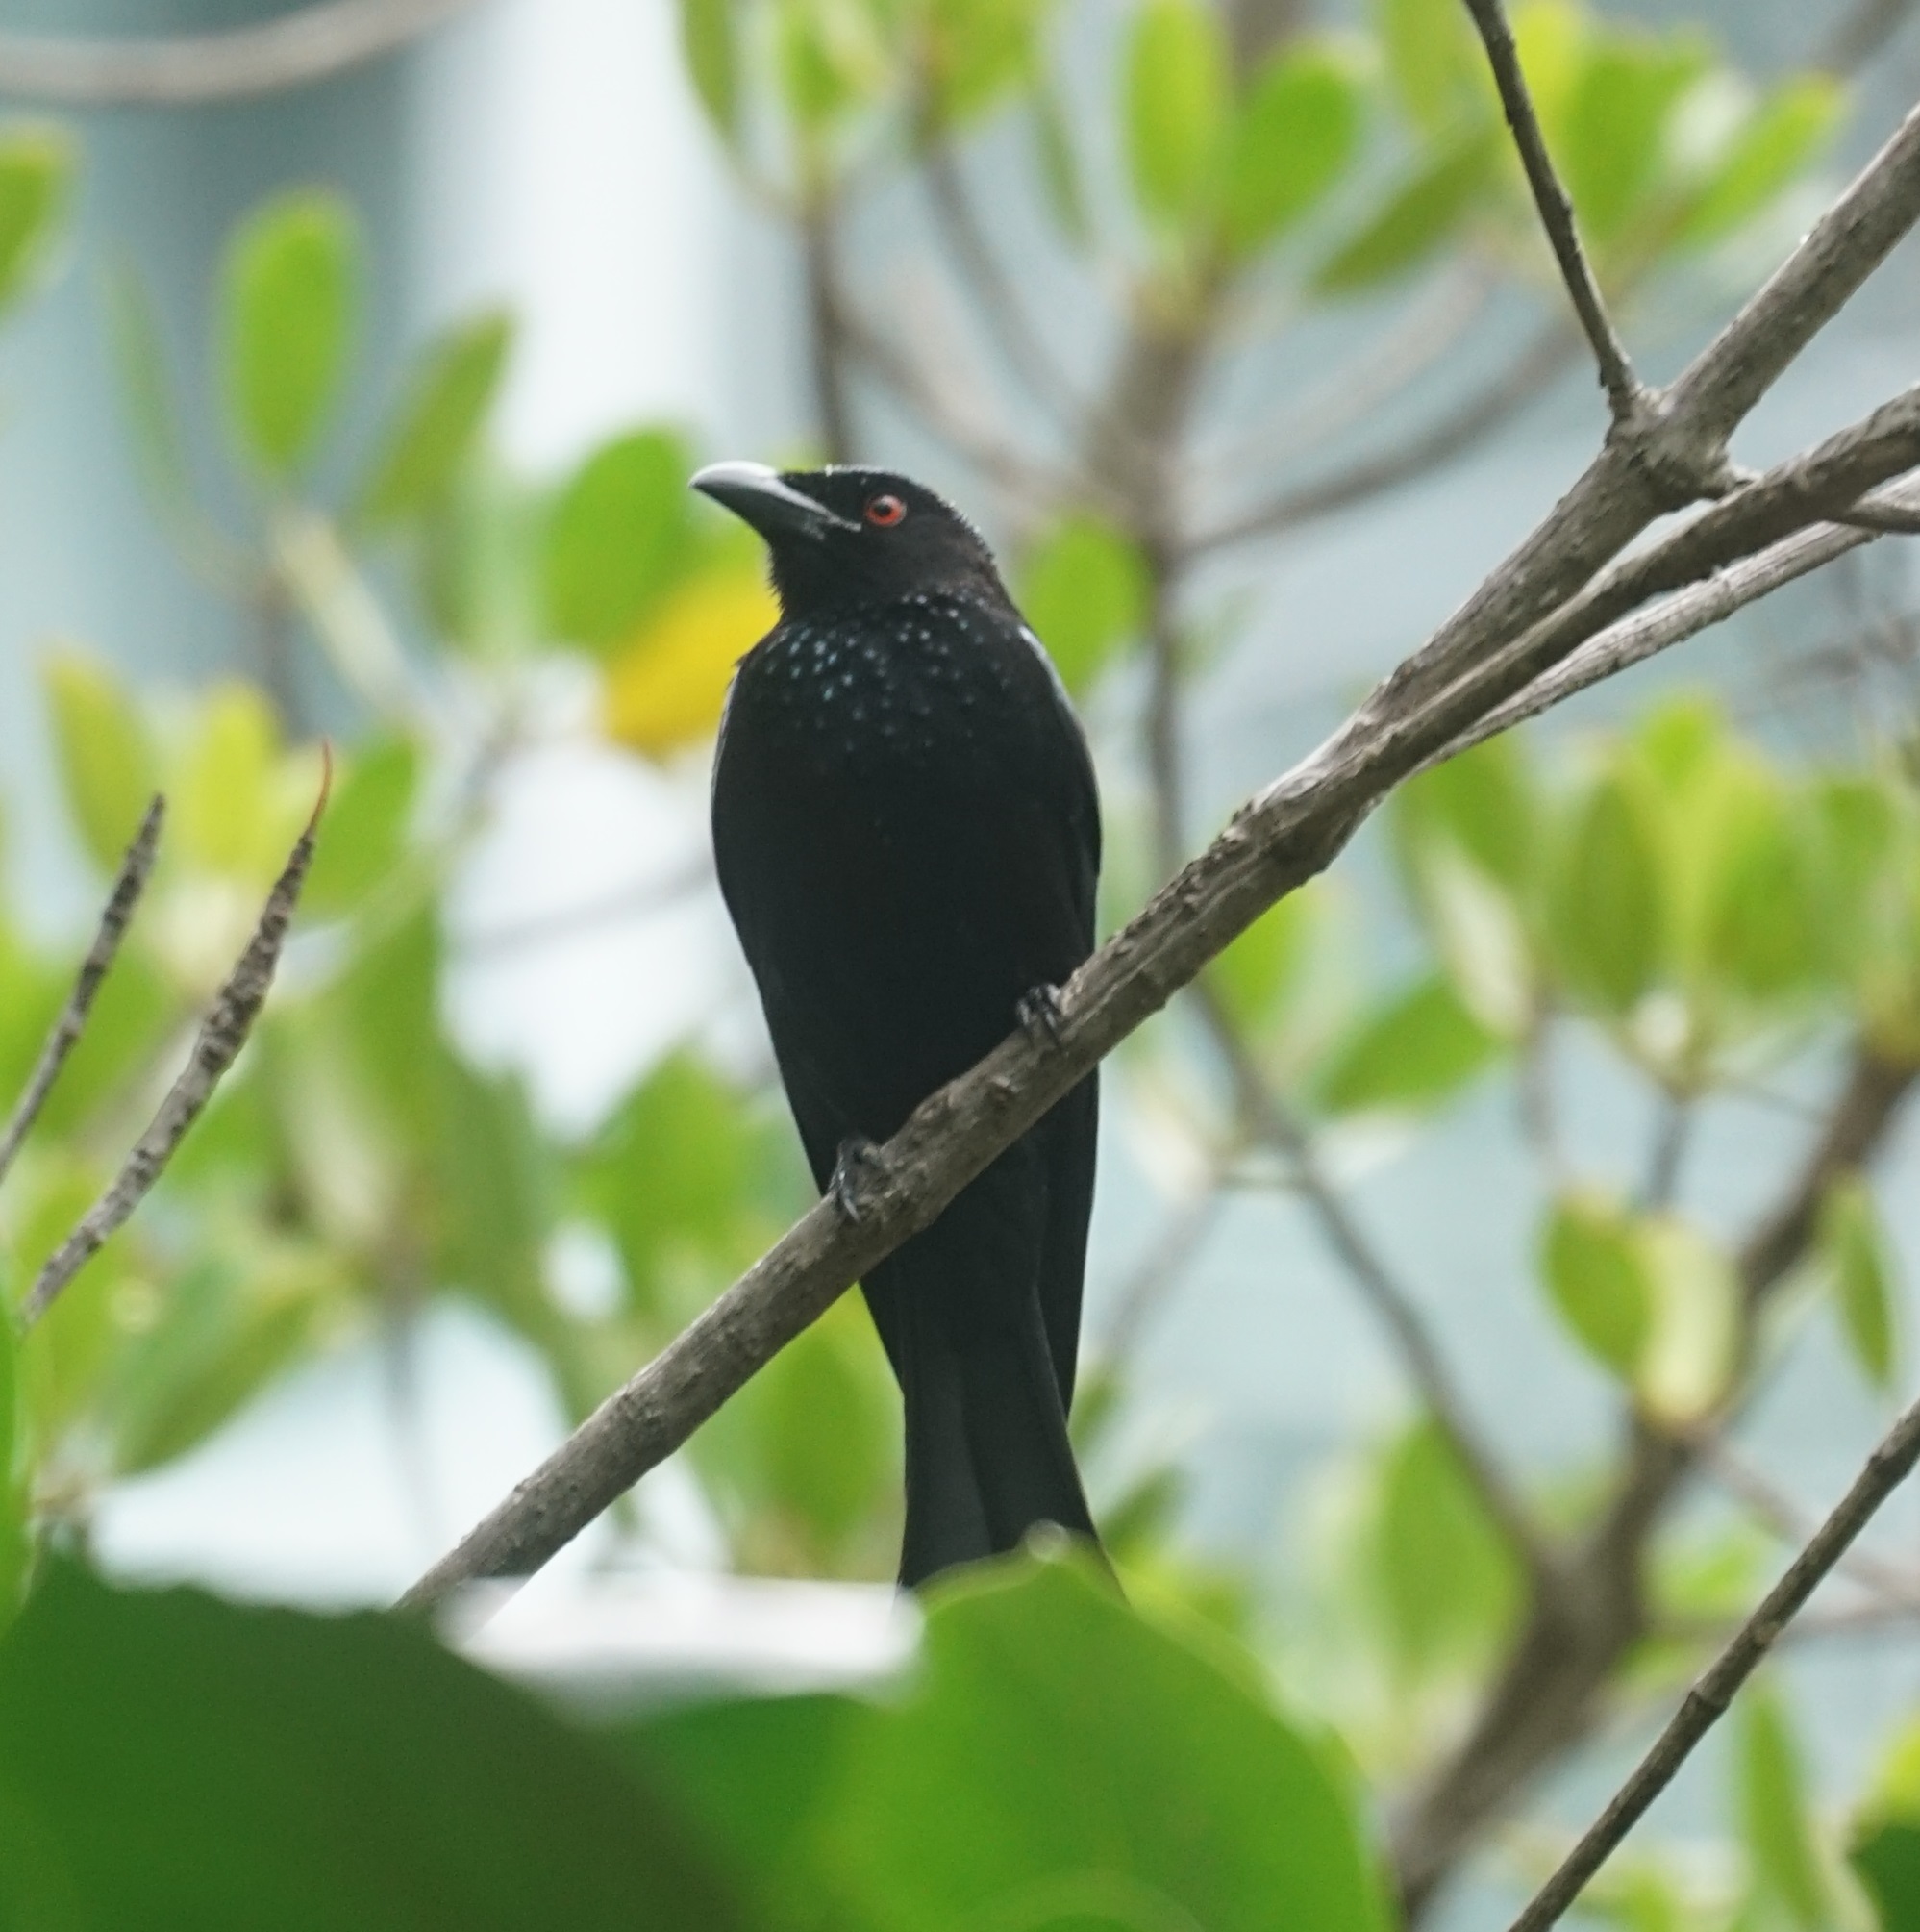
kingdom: Animalia
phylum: Chordata
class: Aves
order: Passeriformes
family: Dicruridae
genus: Dicrurus
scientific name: Dicrurus bracteatus
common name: Spangled drongo
